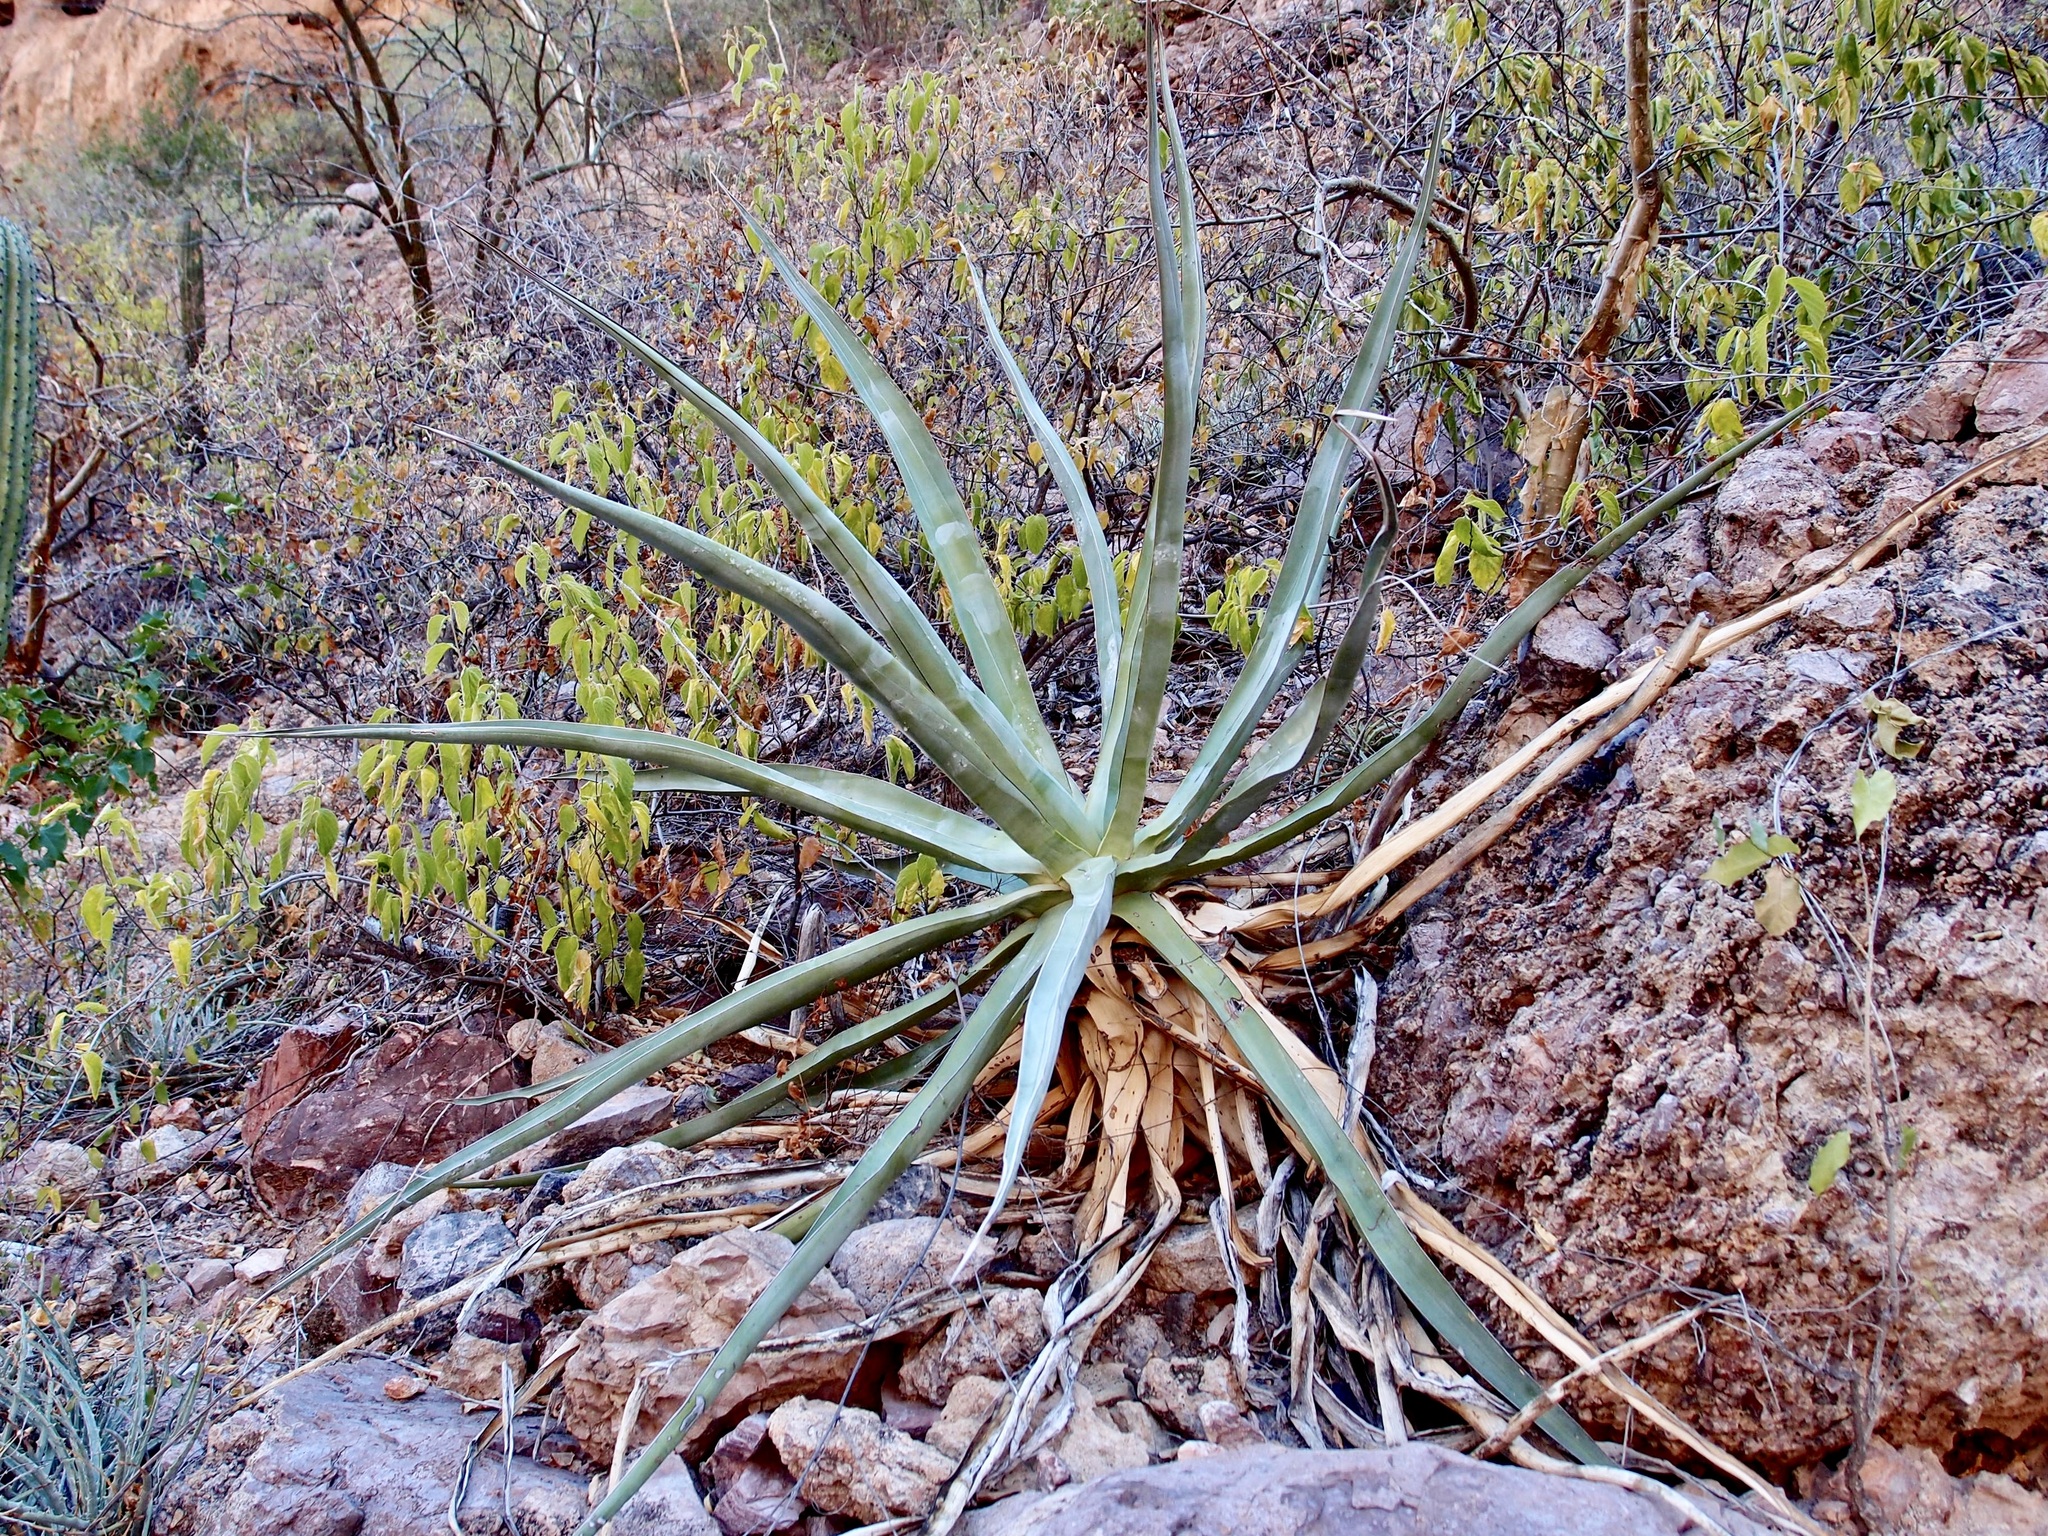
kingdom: Plantae
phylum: Tracheophyta
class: Liliopsida
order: Asparagales
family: Asparagaceae
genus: Agave
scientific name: Agave chrysoglossa
